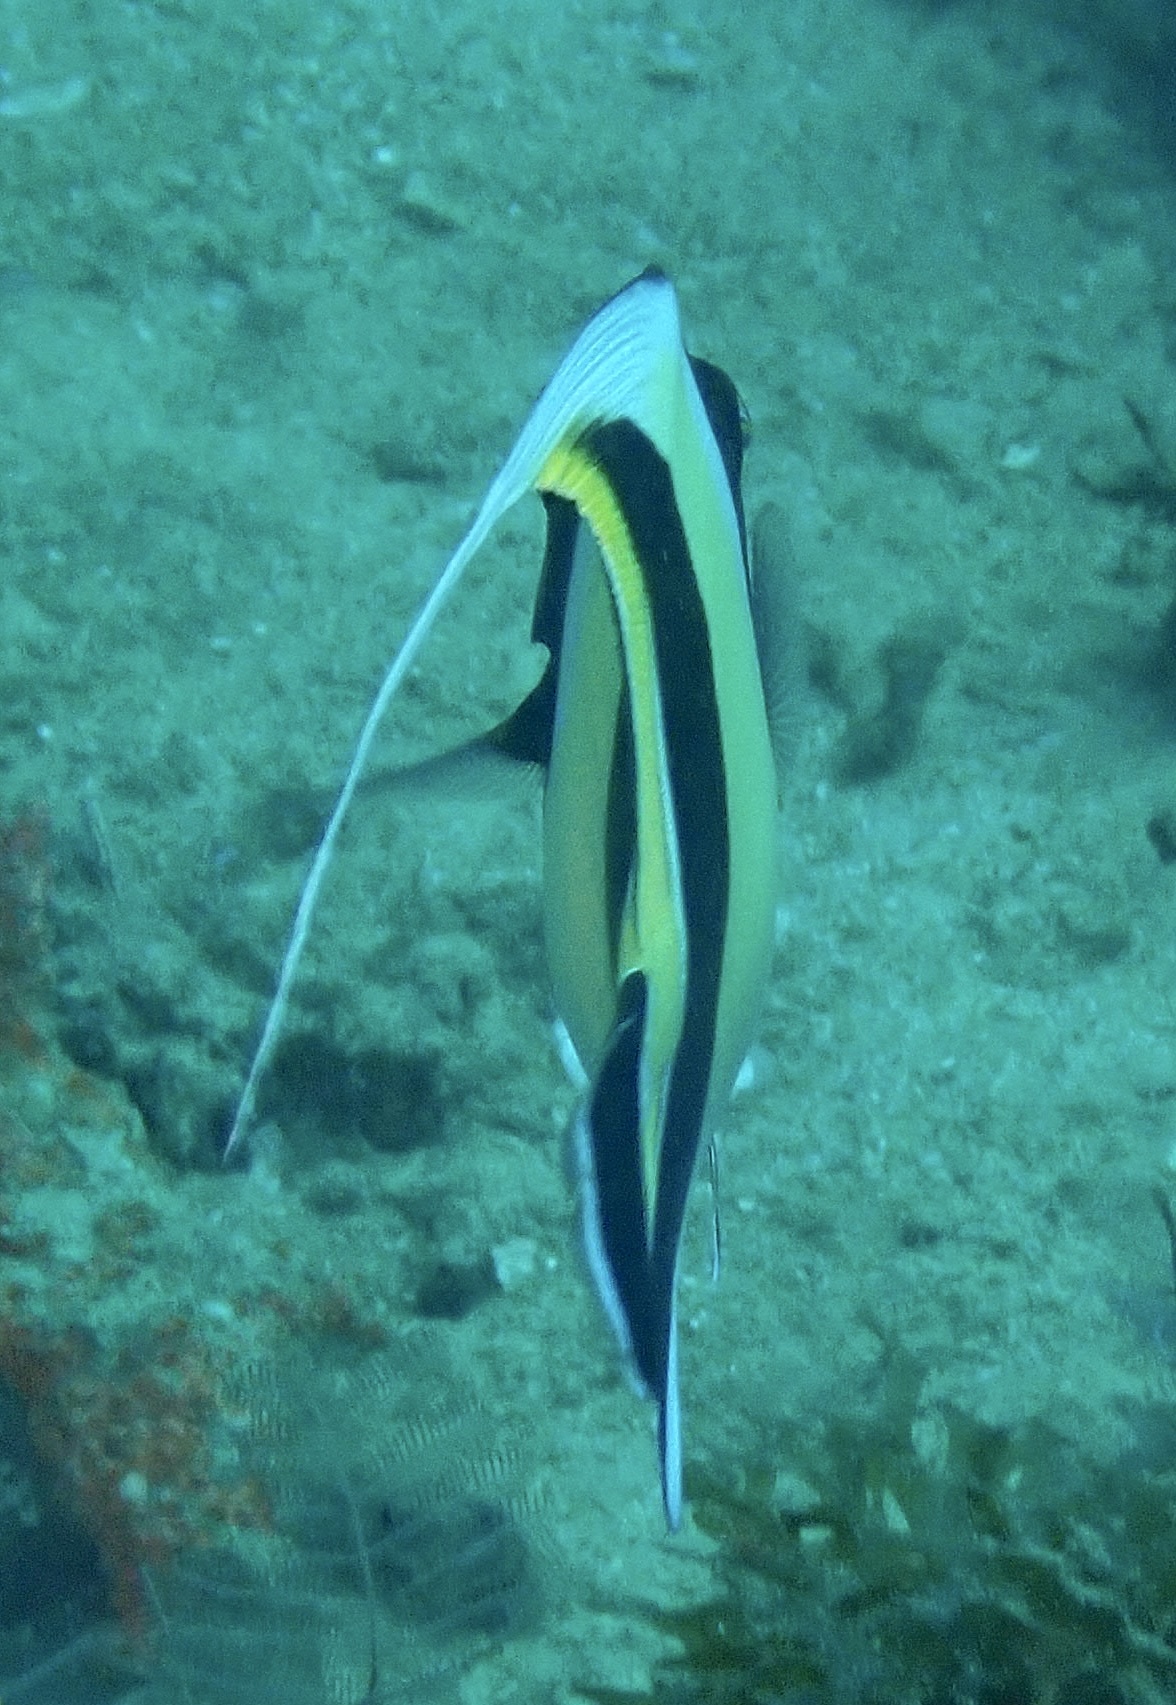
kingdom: Animalia
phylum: Chordata
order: Perciformes
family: Zanclidae
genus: Zanclus
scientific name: Zanclus cornutus
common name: Moorish idol
